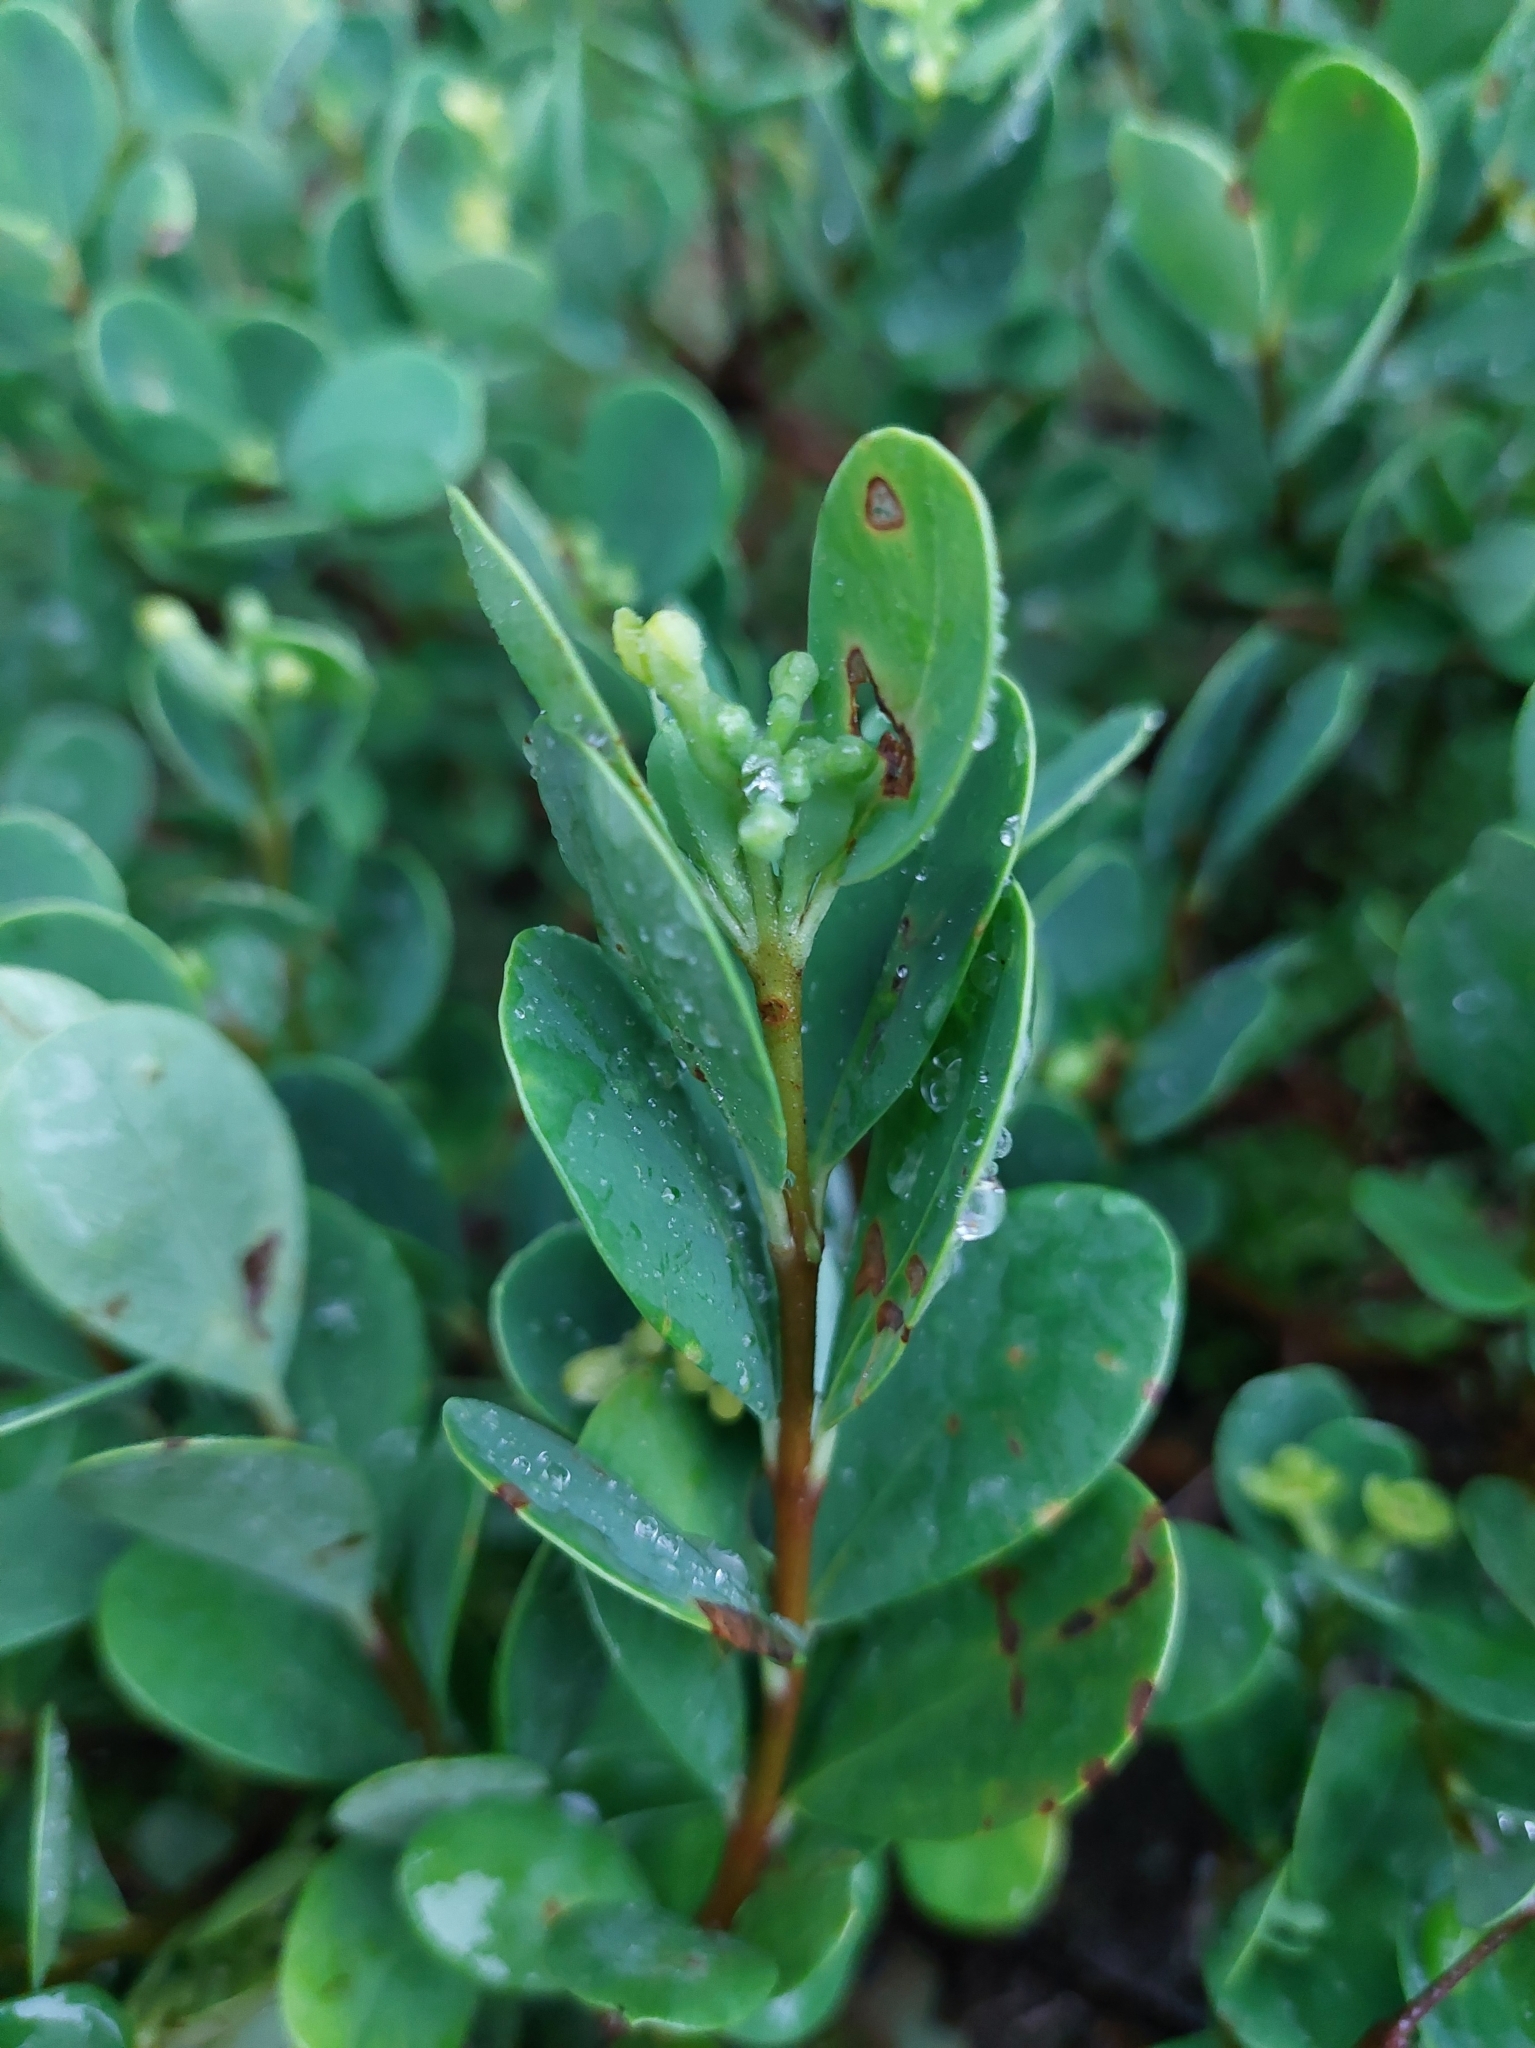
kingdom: Plantae
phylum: Tracheophyta
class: Magnoliopsida
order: Malvales
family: Thymelaeaceae
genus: Wikstroemia
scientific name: Wikstroemia retusa
